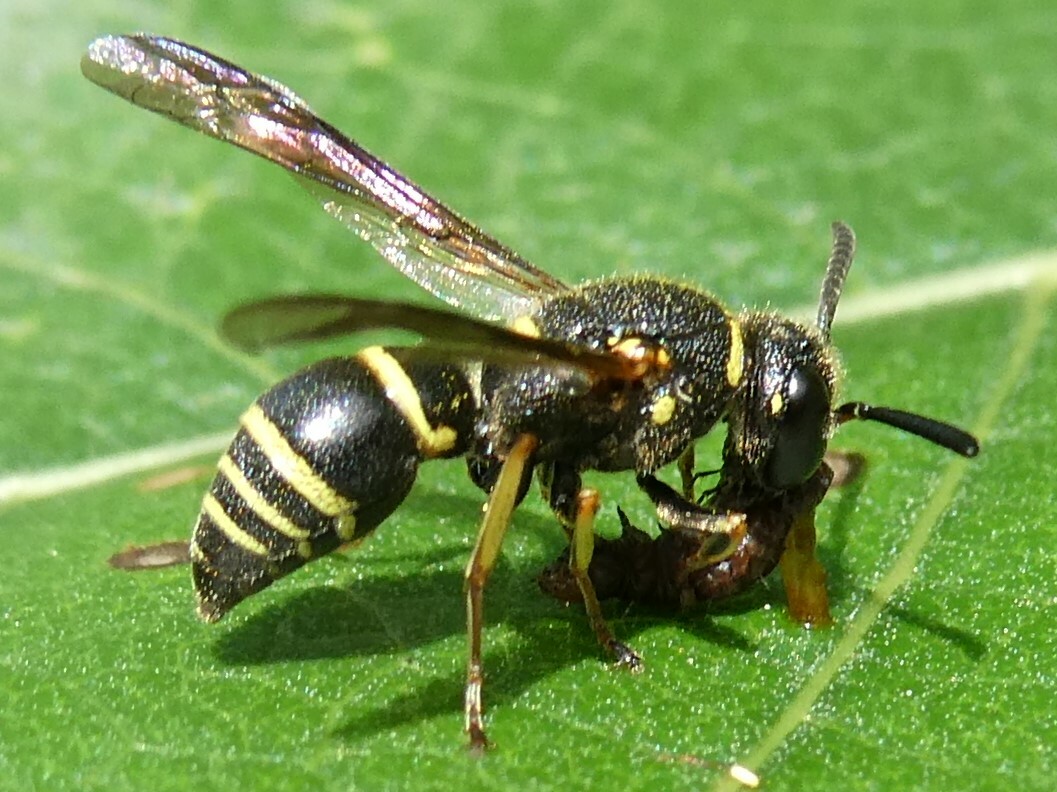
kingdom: Animalia
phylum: Arthropoda
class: Insecta
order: Hymenoptera
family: Eumenidae
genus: Euodynerus
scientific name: Euodynerus foraminatus
